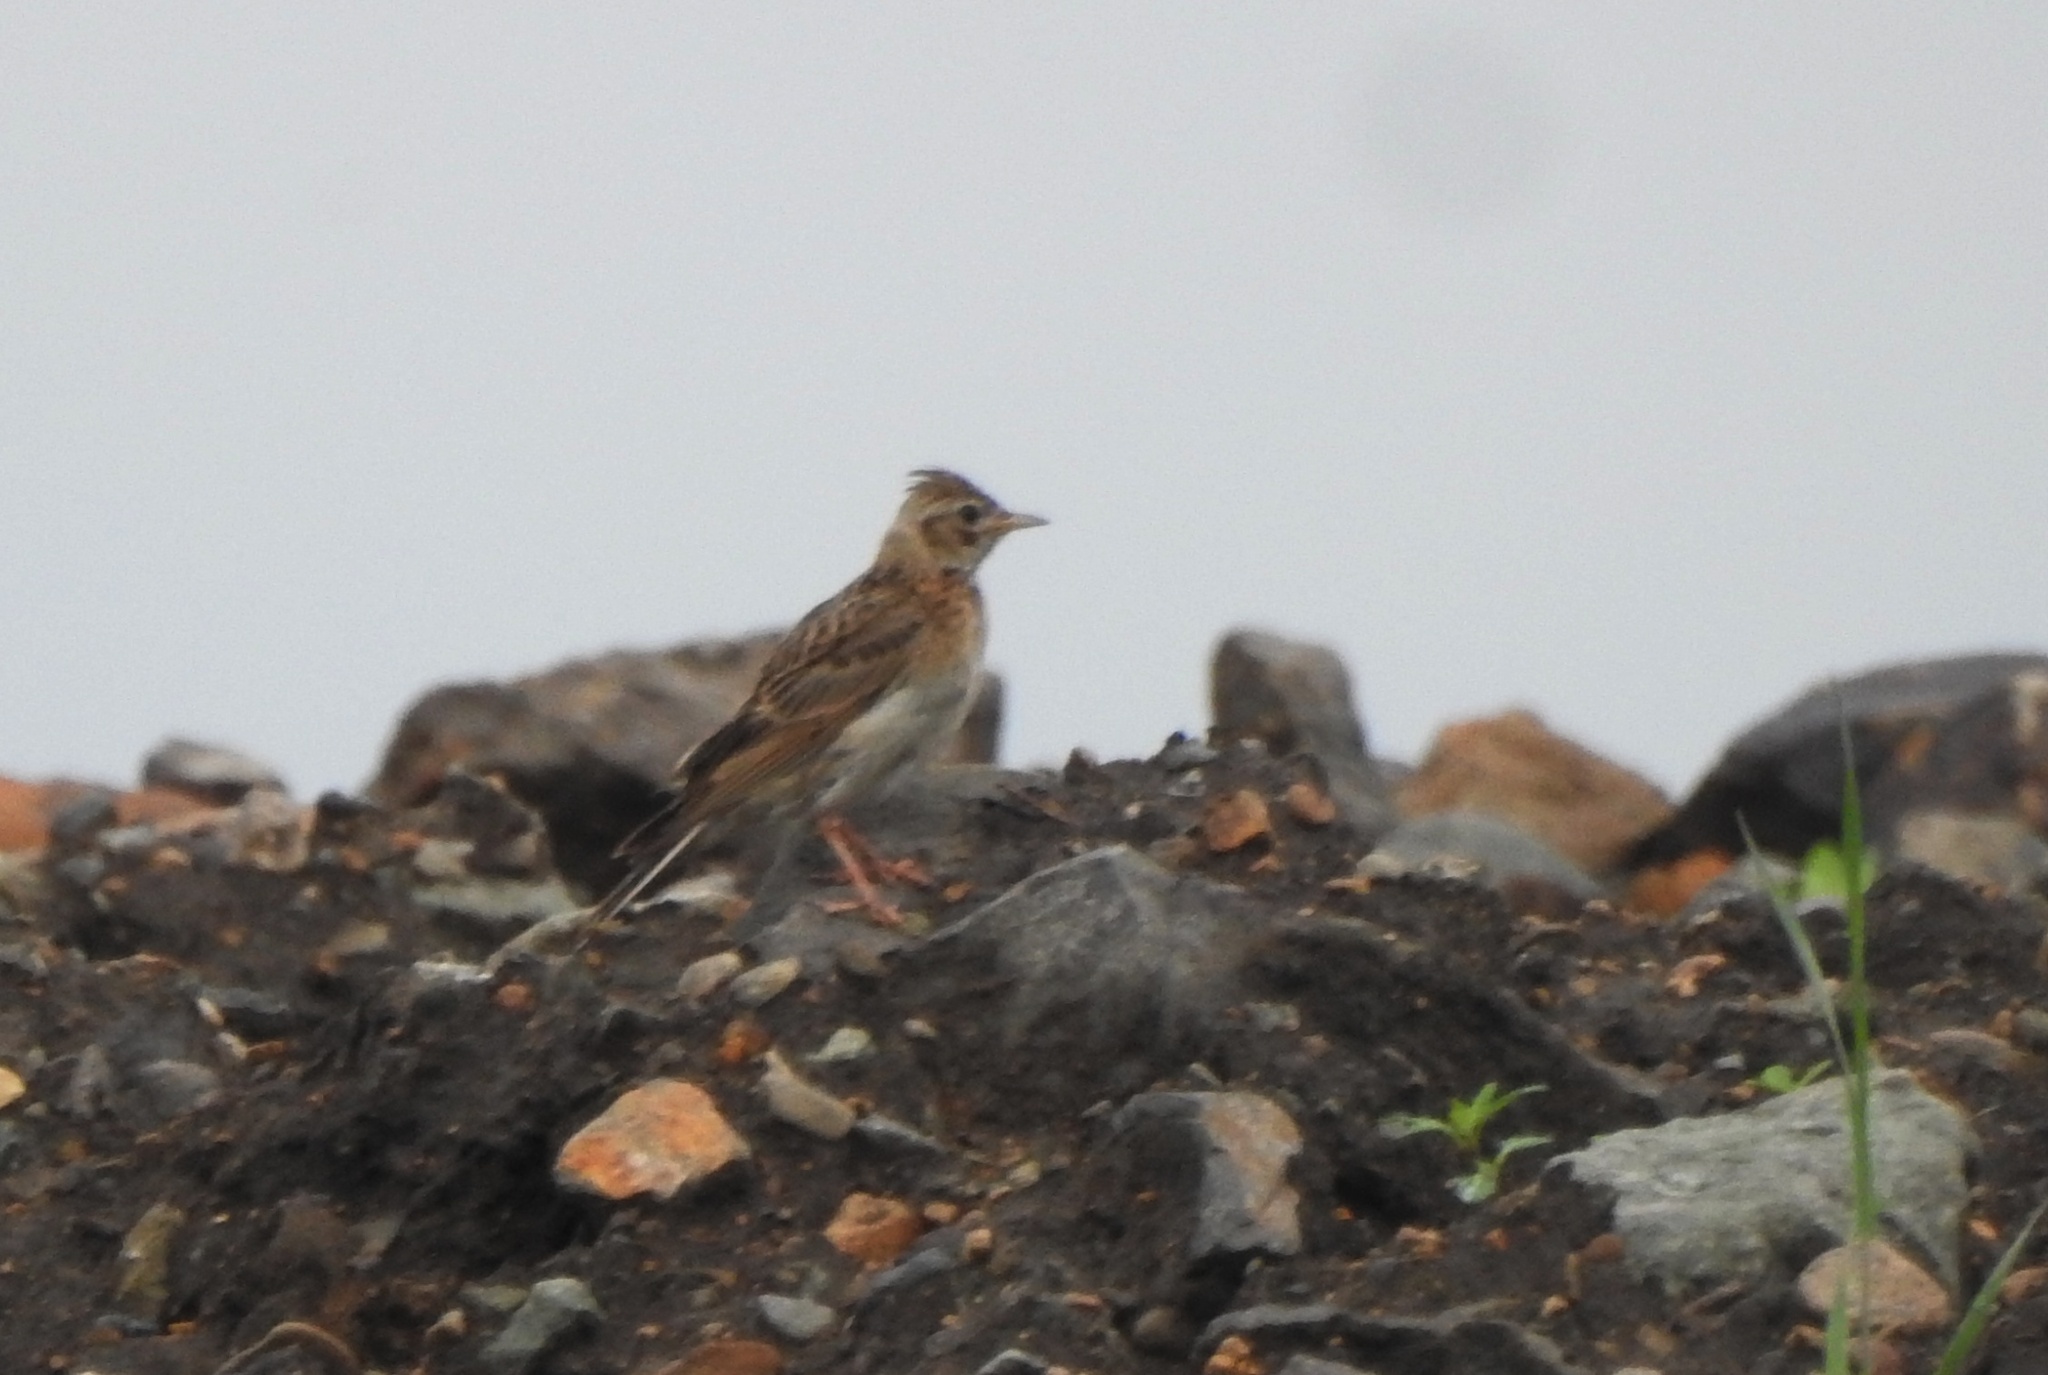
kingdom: Animalia
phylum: Chordata
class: Aves
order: Passeriformes
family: Alaudidae
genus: Alauda
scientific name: Alauda arvensis
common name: Eurasian skylark
